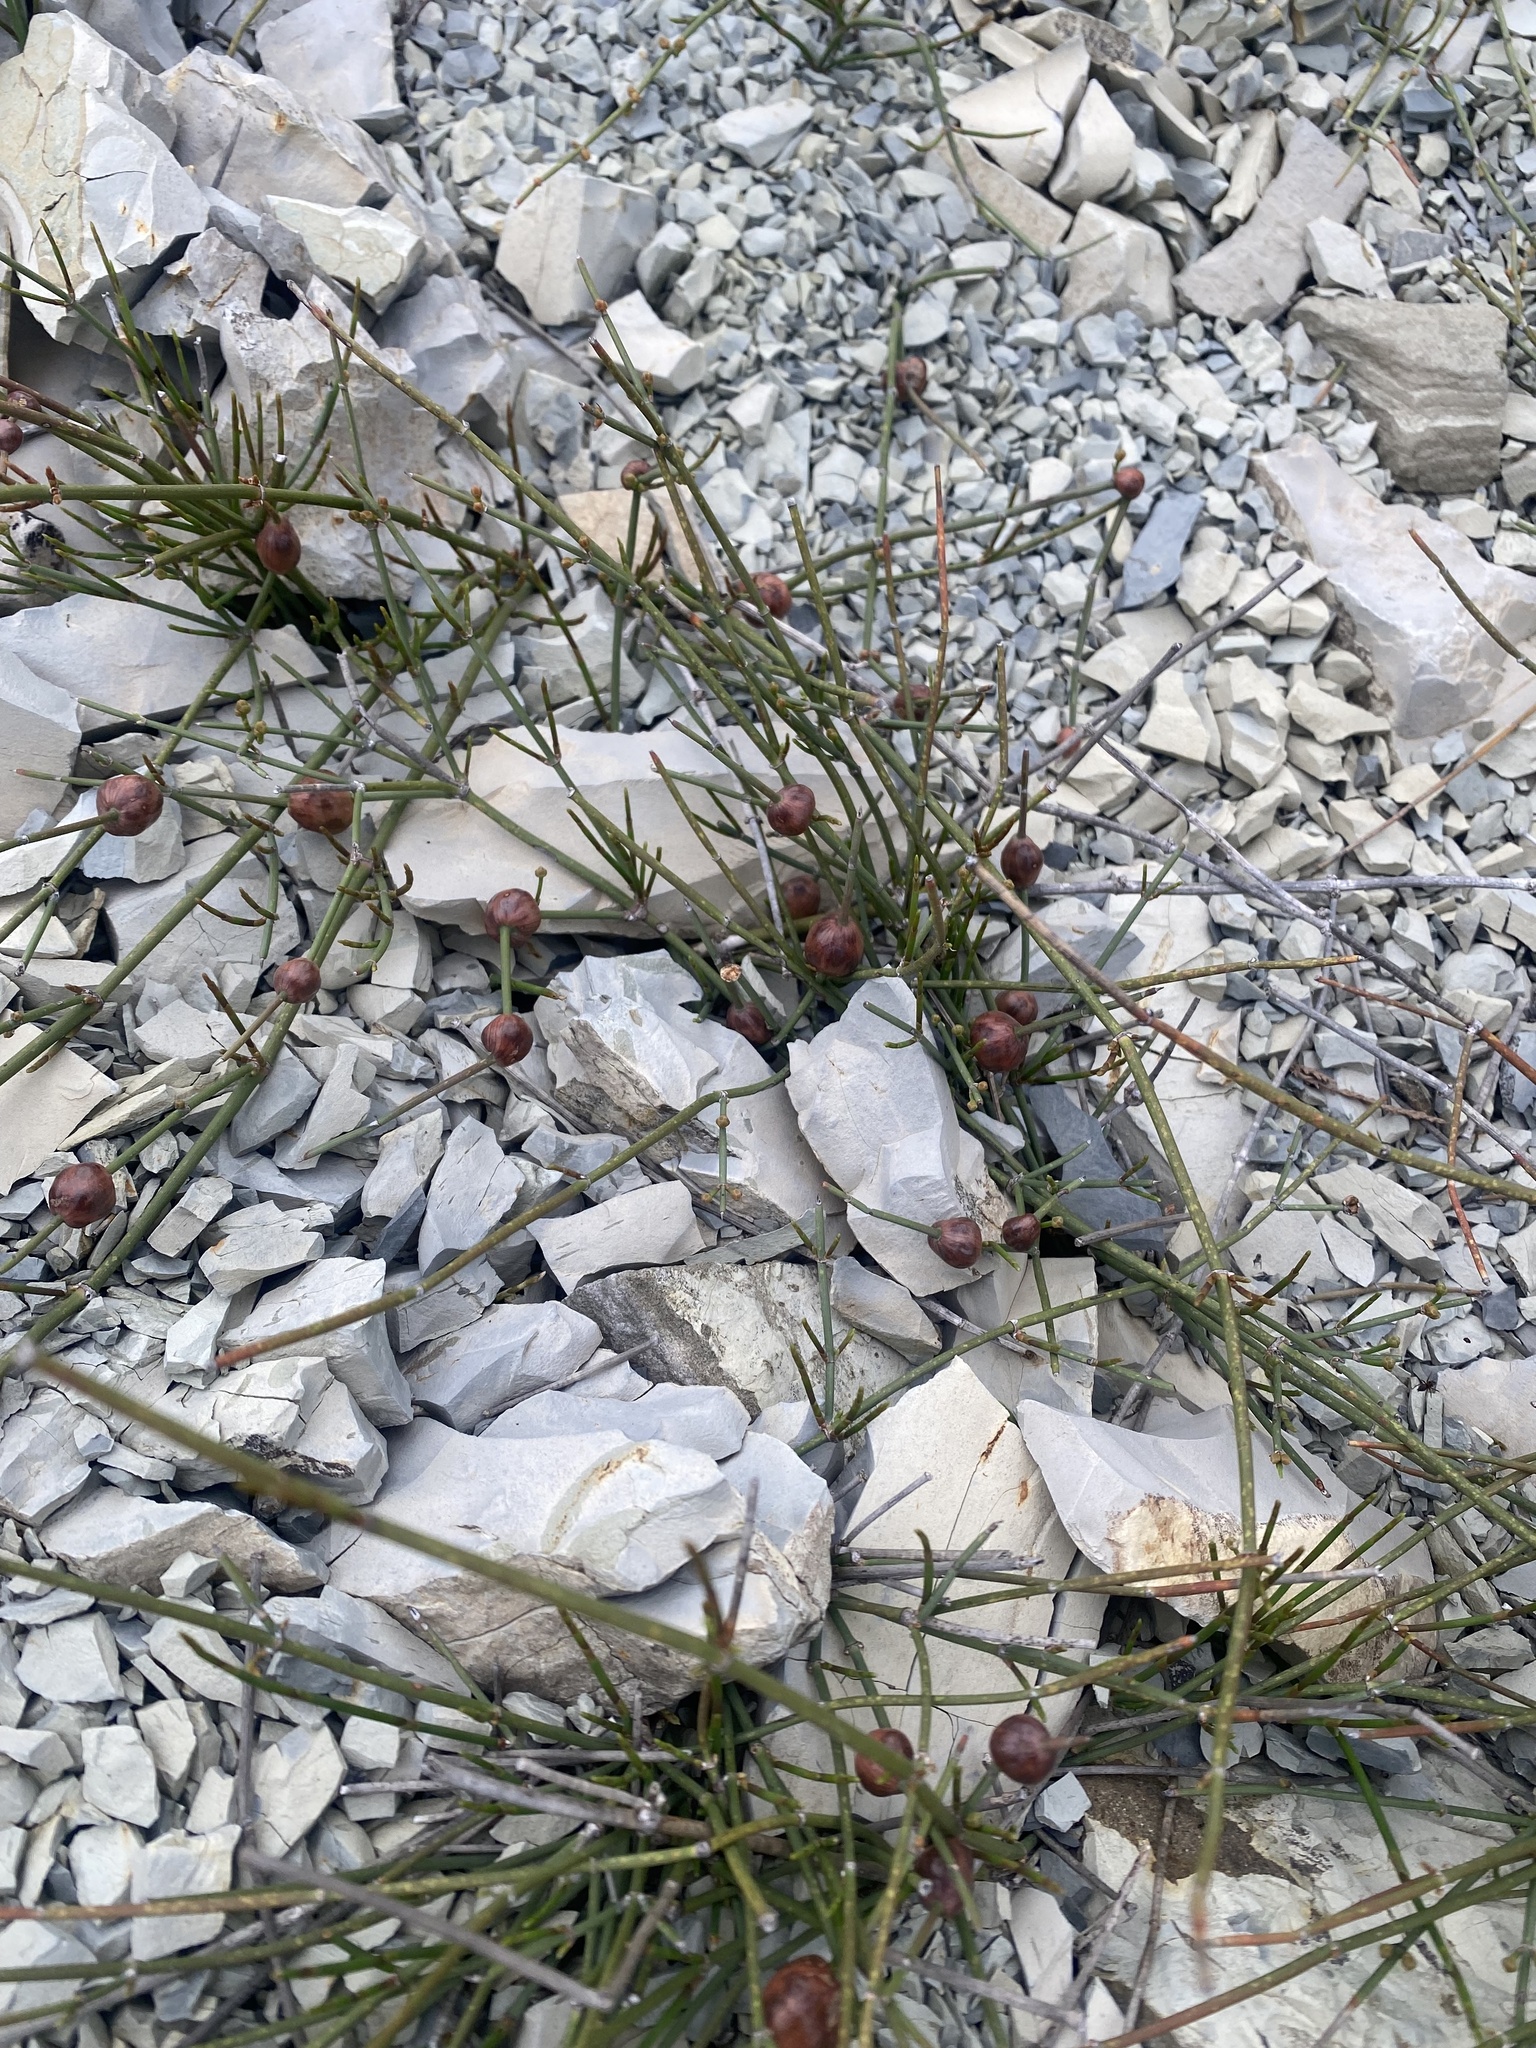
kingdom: Plantae
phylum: Tracheophyta
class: Gnetopsida
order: Ephedrales
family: Ephedraceae
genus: Ephedra
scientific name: Ephedra distachya
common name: Sea grape
